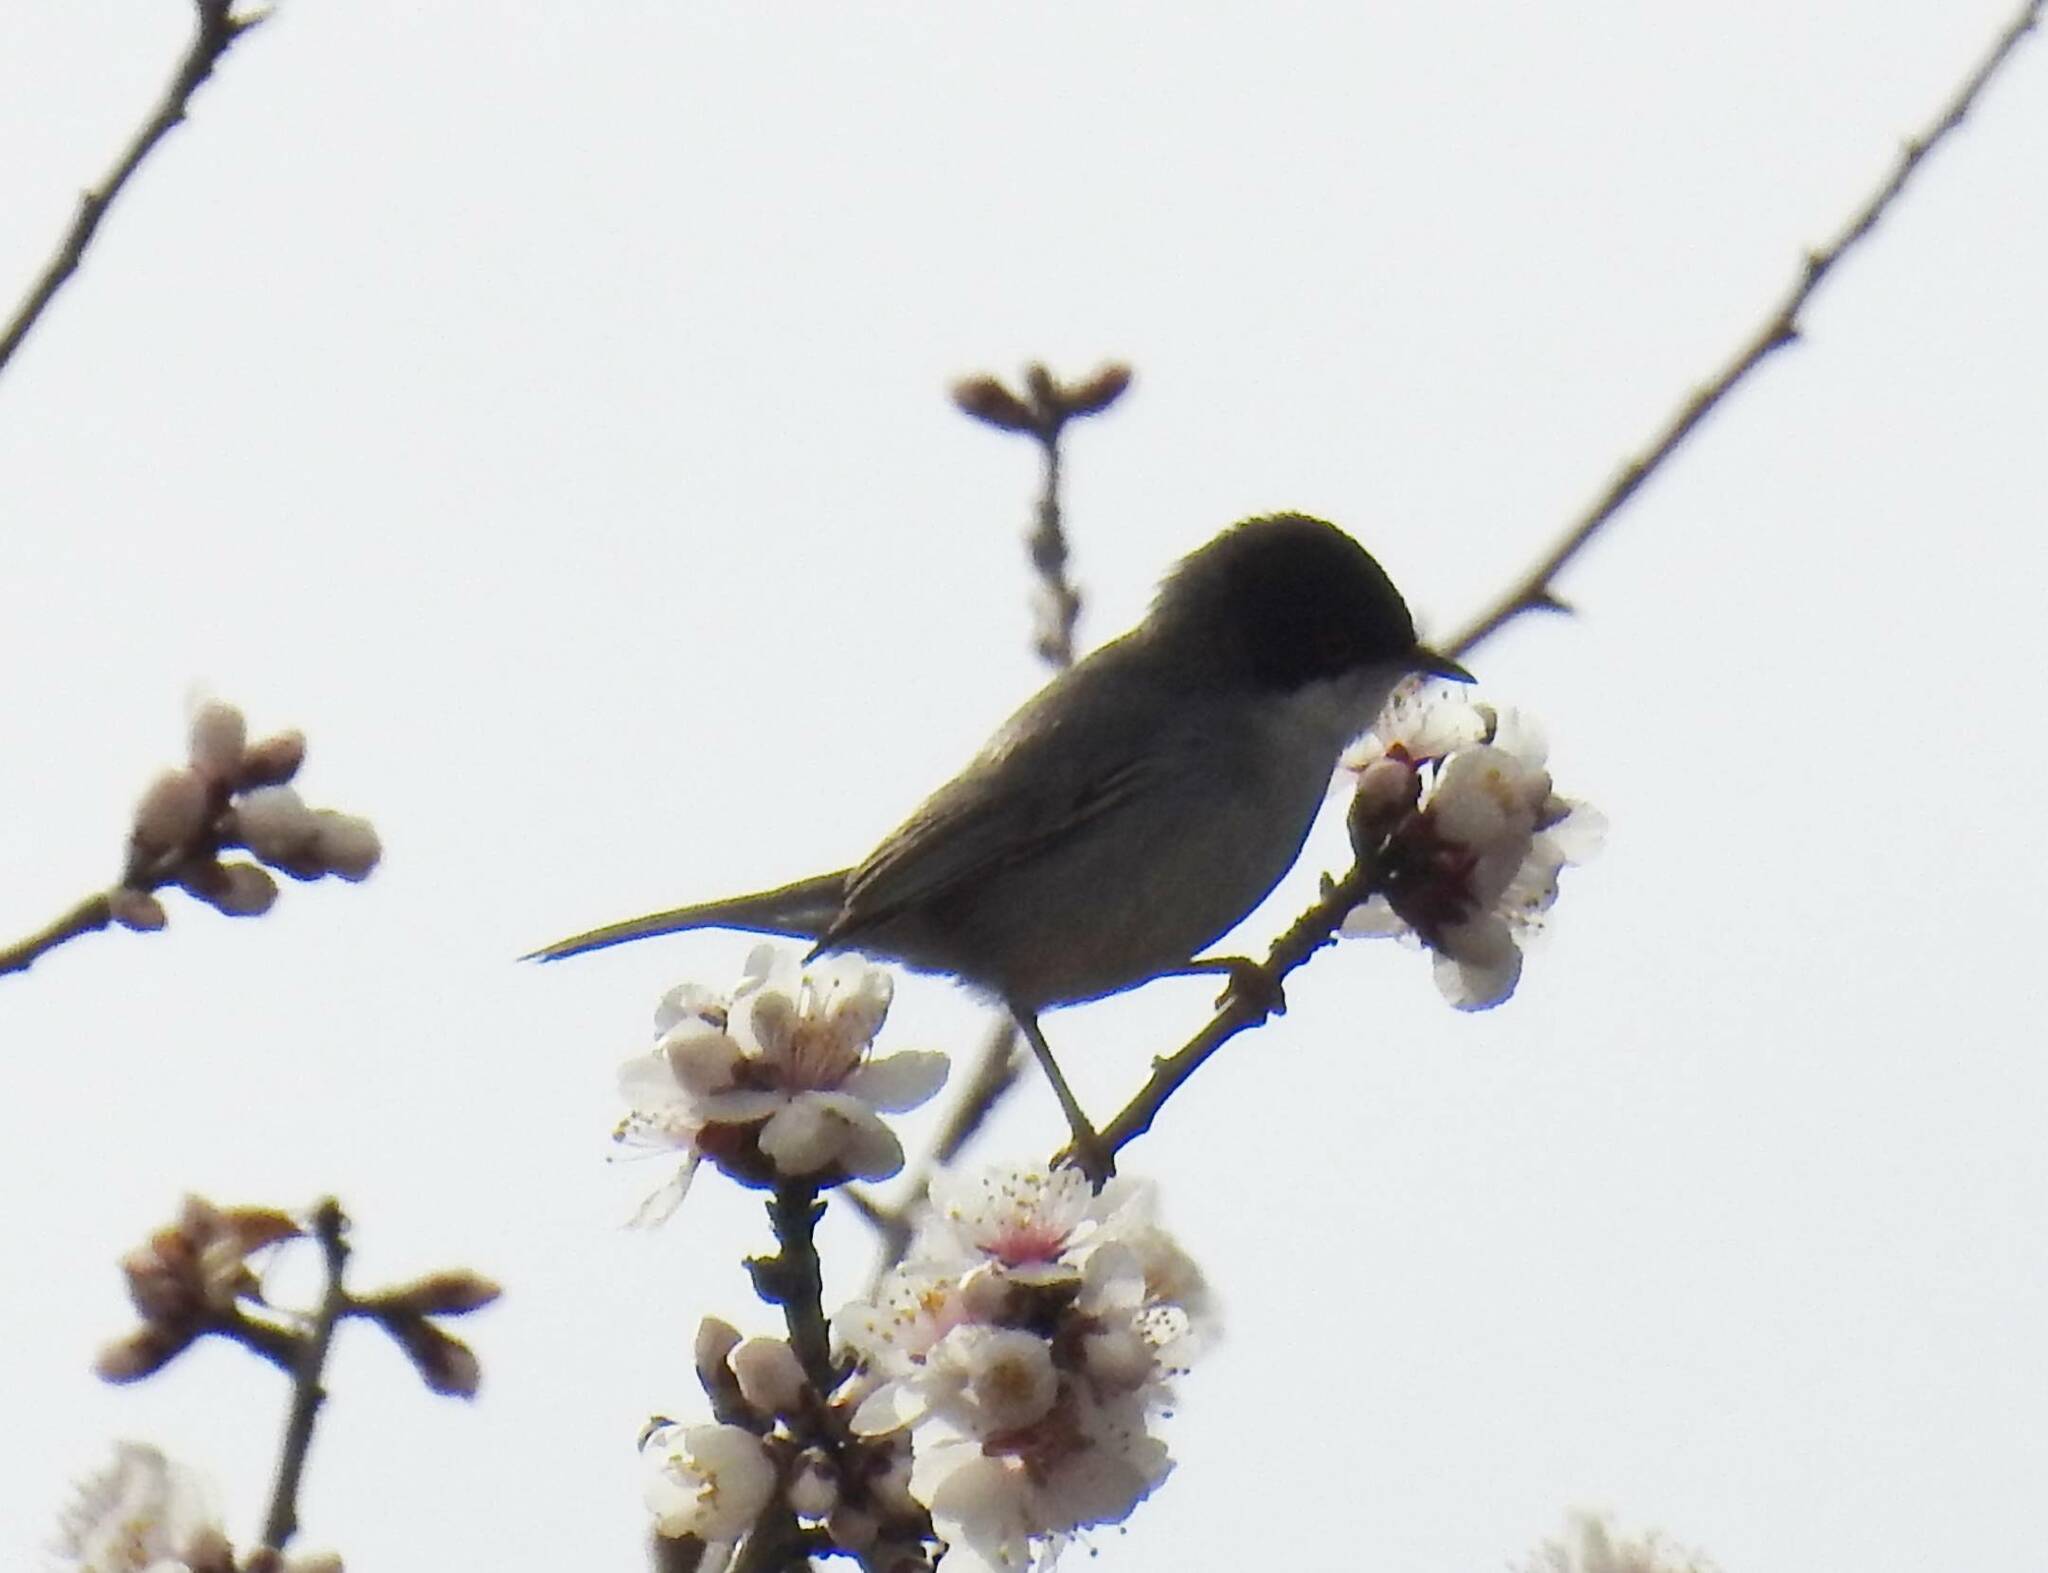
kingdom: Animalia
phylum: Chordata
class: Aves
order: Passeriformes
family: Sylviidae
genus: Curruca
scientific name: Curruca melanocephala
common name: Sardinian warbler
